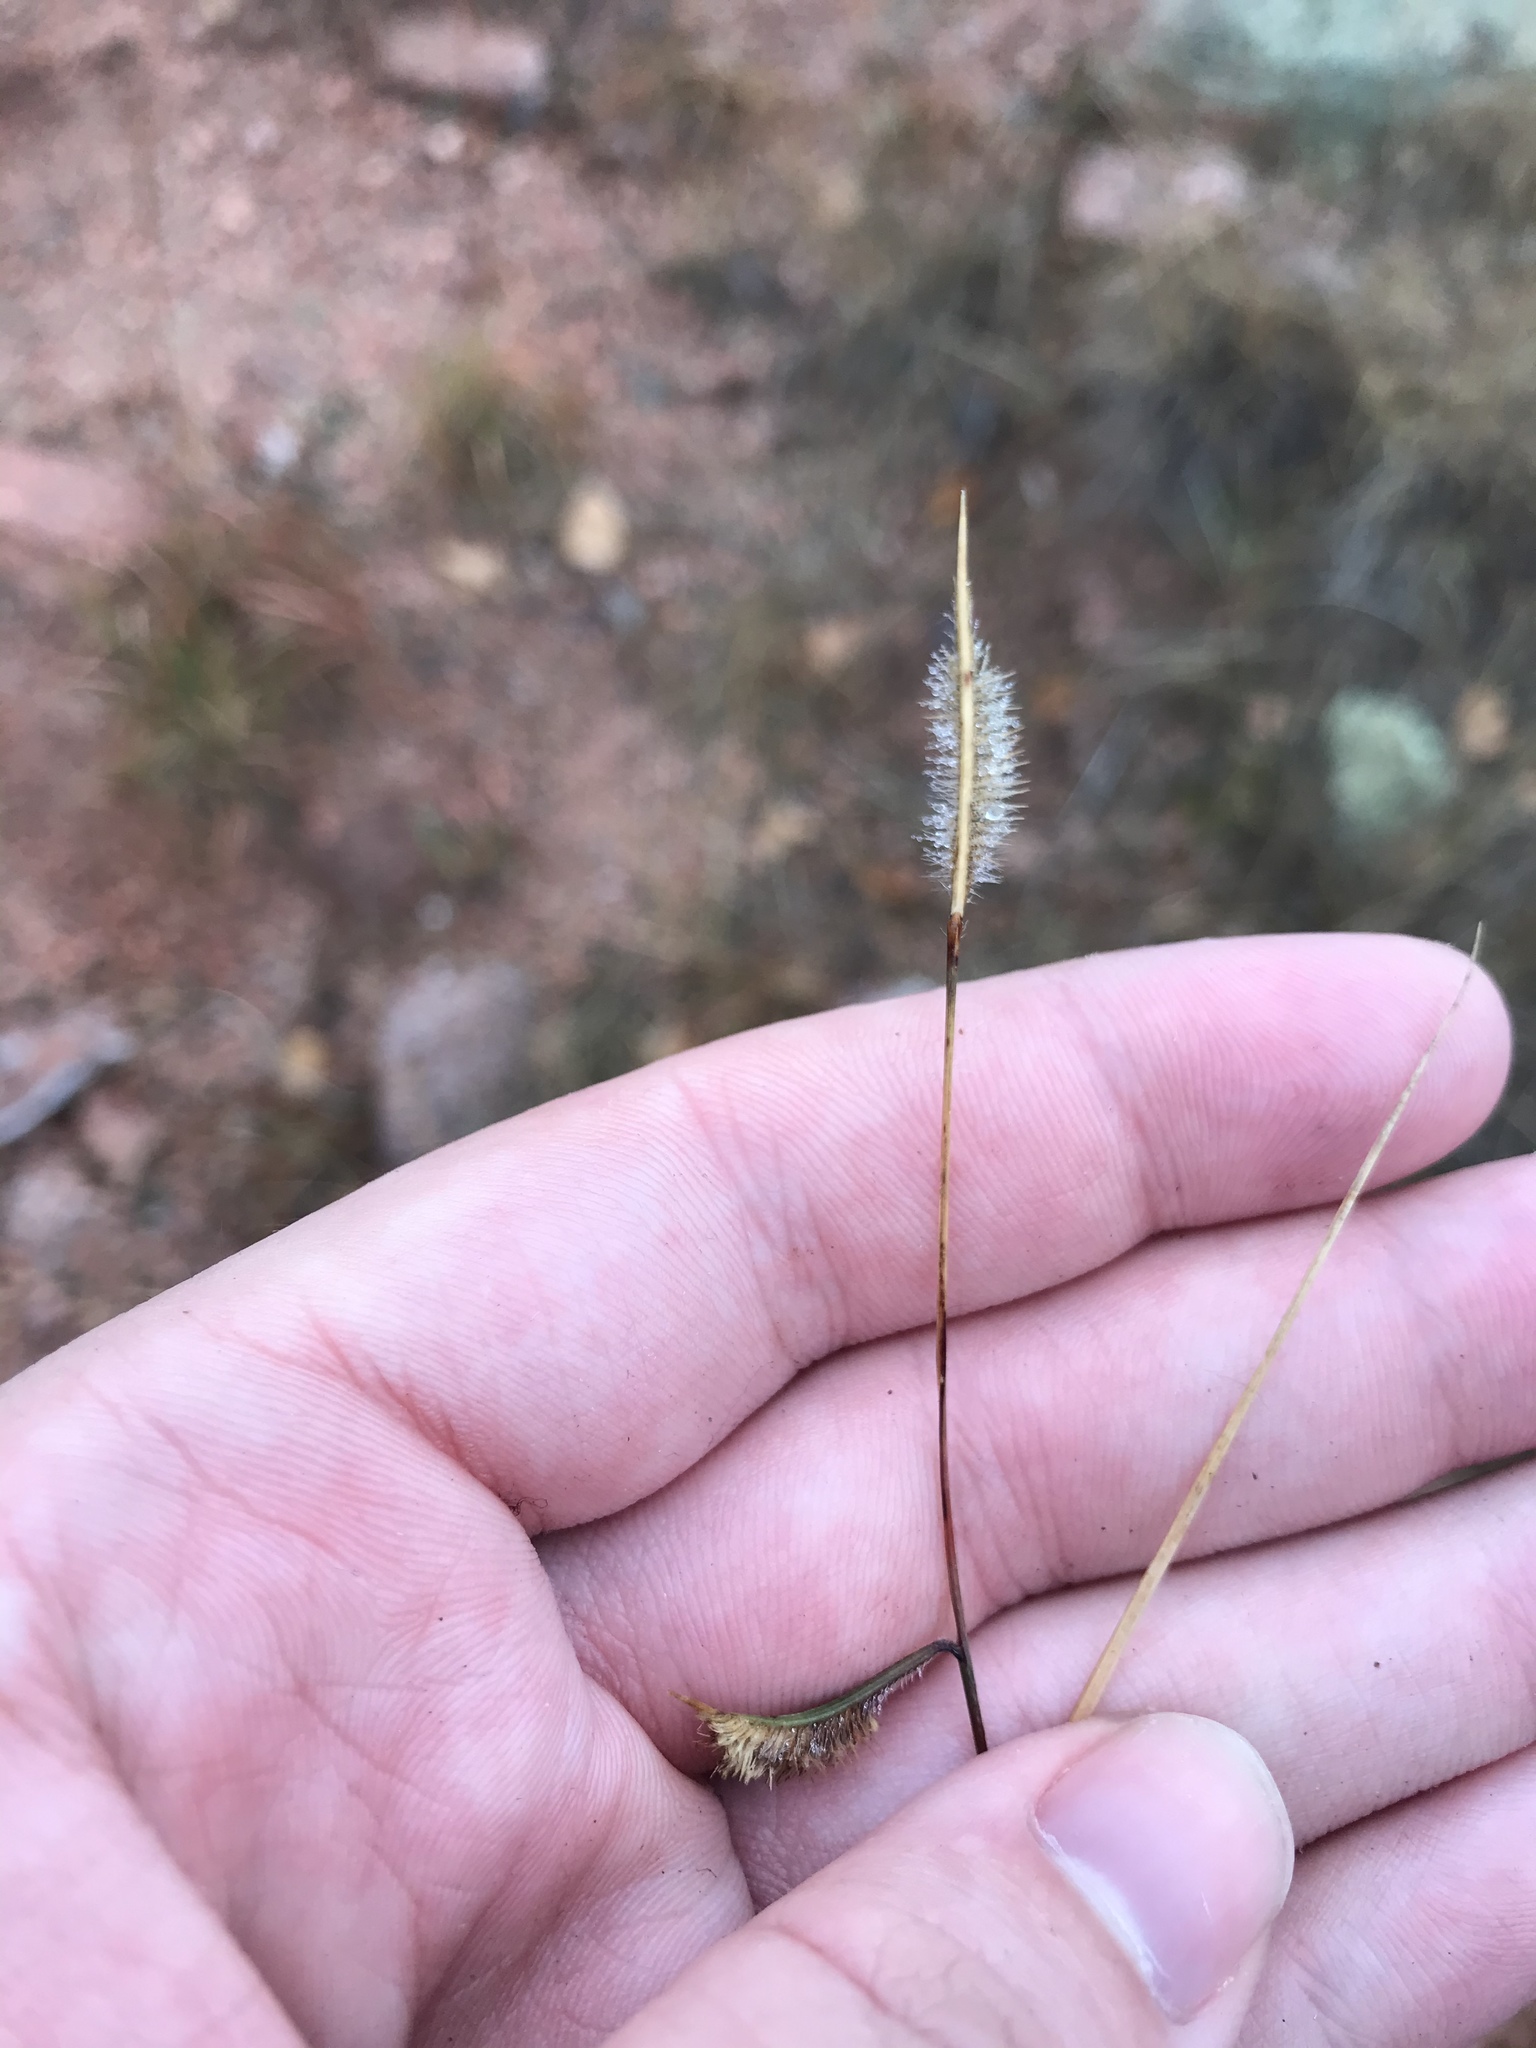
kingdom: Plantae
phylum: Tracheophyta
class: Liliopsida
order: Poales
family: Poaceae
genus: Bouteloua
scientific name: Bouteloua hirsuta
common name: Hairy grama
